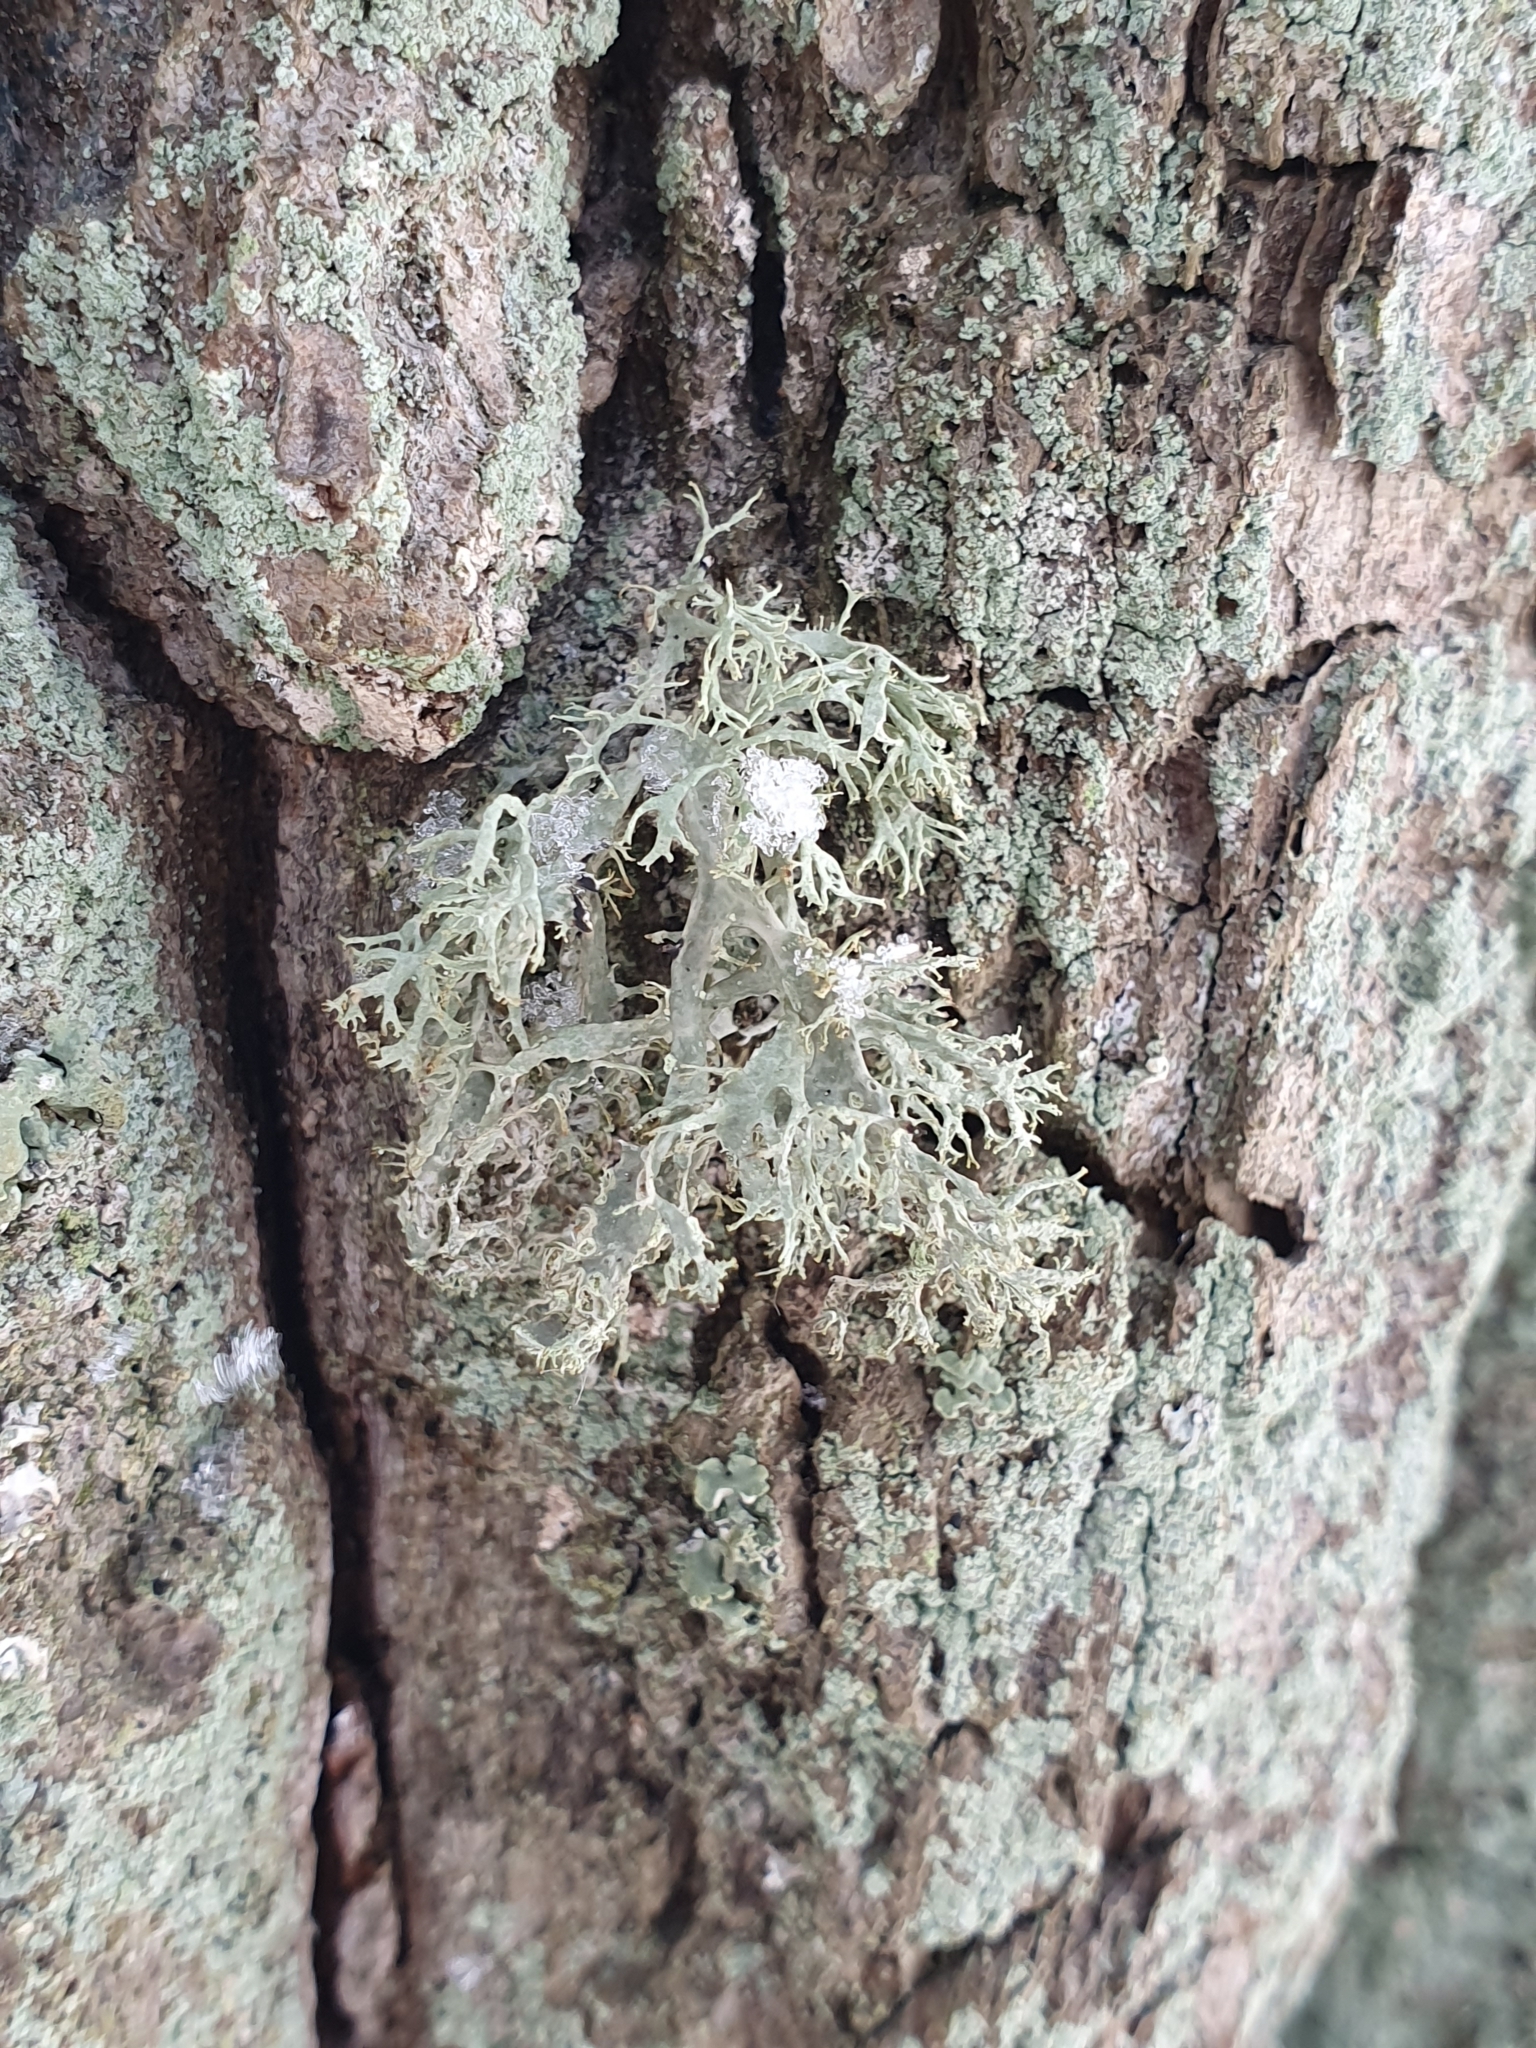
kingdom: Fungi
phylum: Ascomycota
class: Lecanoromycetes
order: Lecanorales
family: Ramalinaceae
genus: Ramalina
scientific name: Ramalina farinacea
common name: Farinose cartilage lichen
